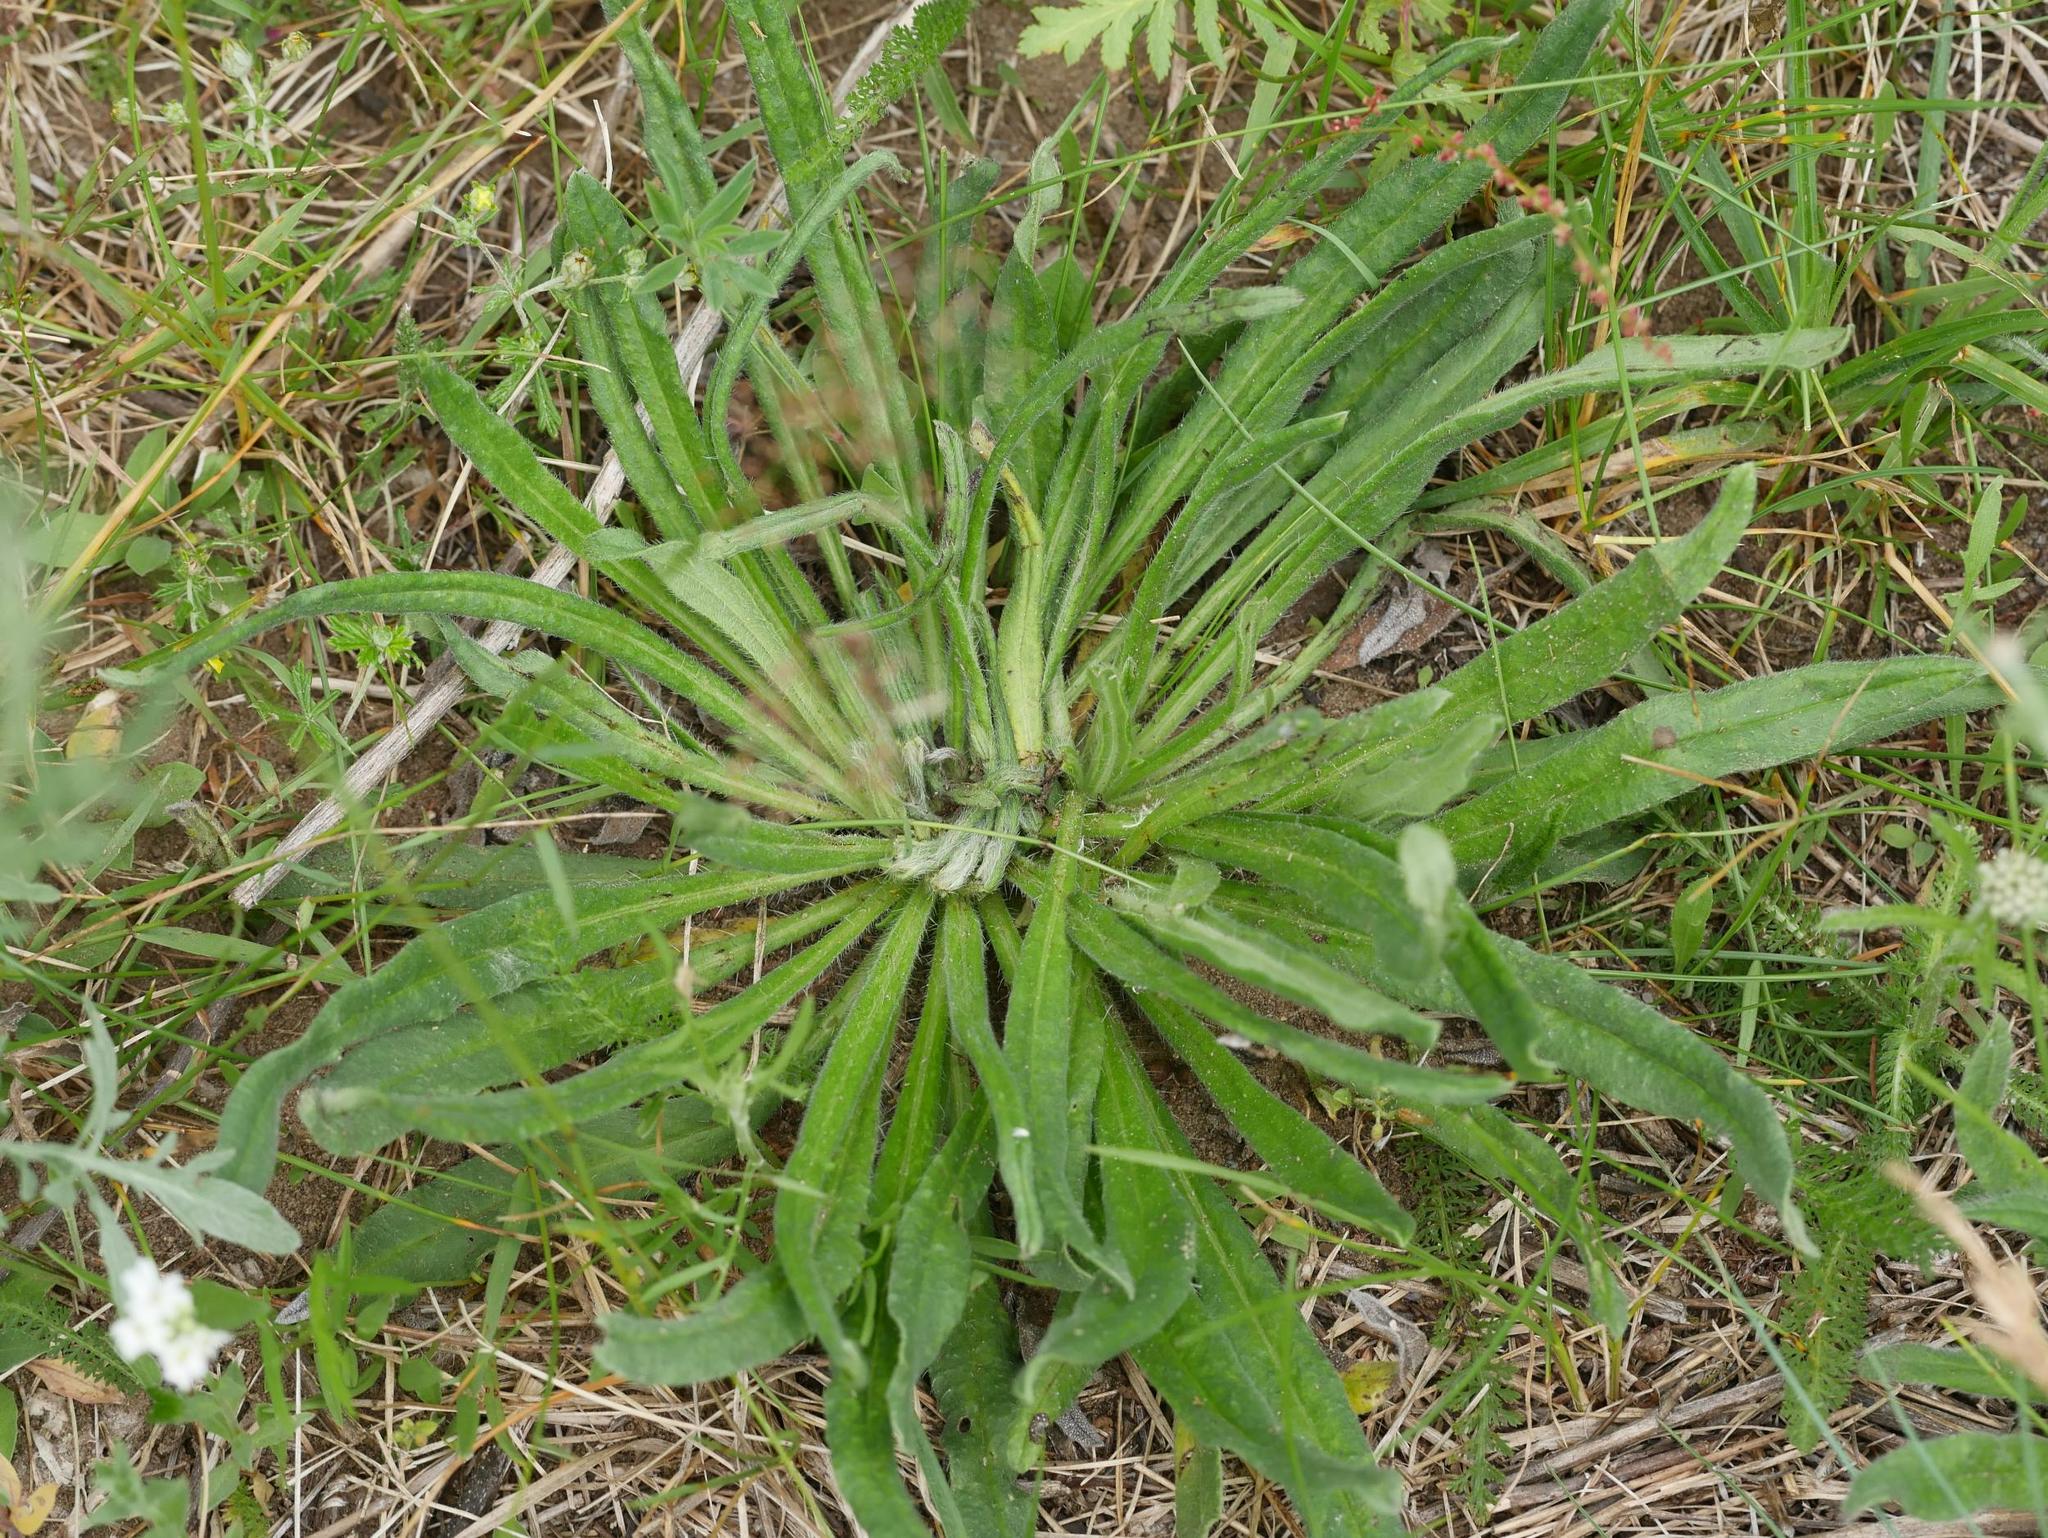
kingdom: Plantae
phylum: Tracheophyta
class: Magnoliopsida
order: Boraginales
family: Boraginaceae
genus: Echium
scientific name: Echium vulgare
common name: Common viper's bugloss
